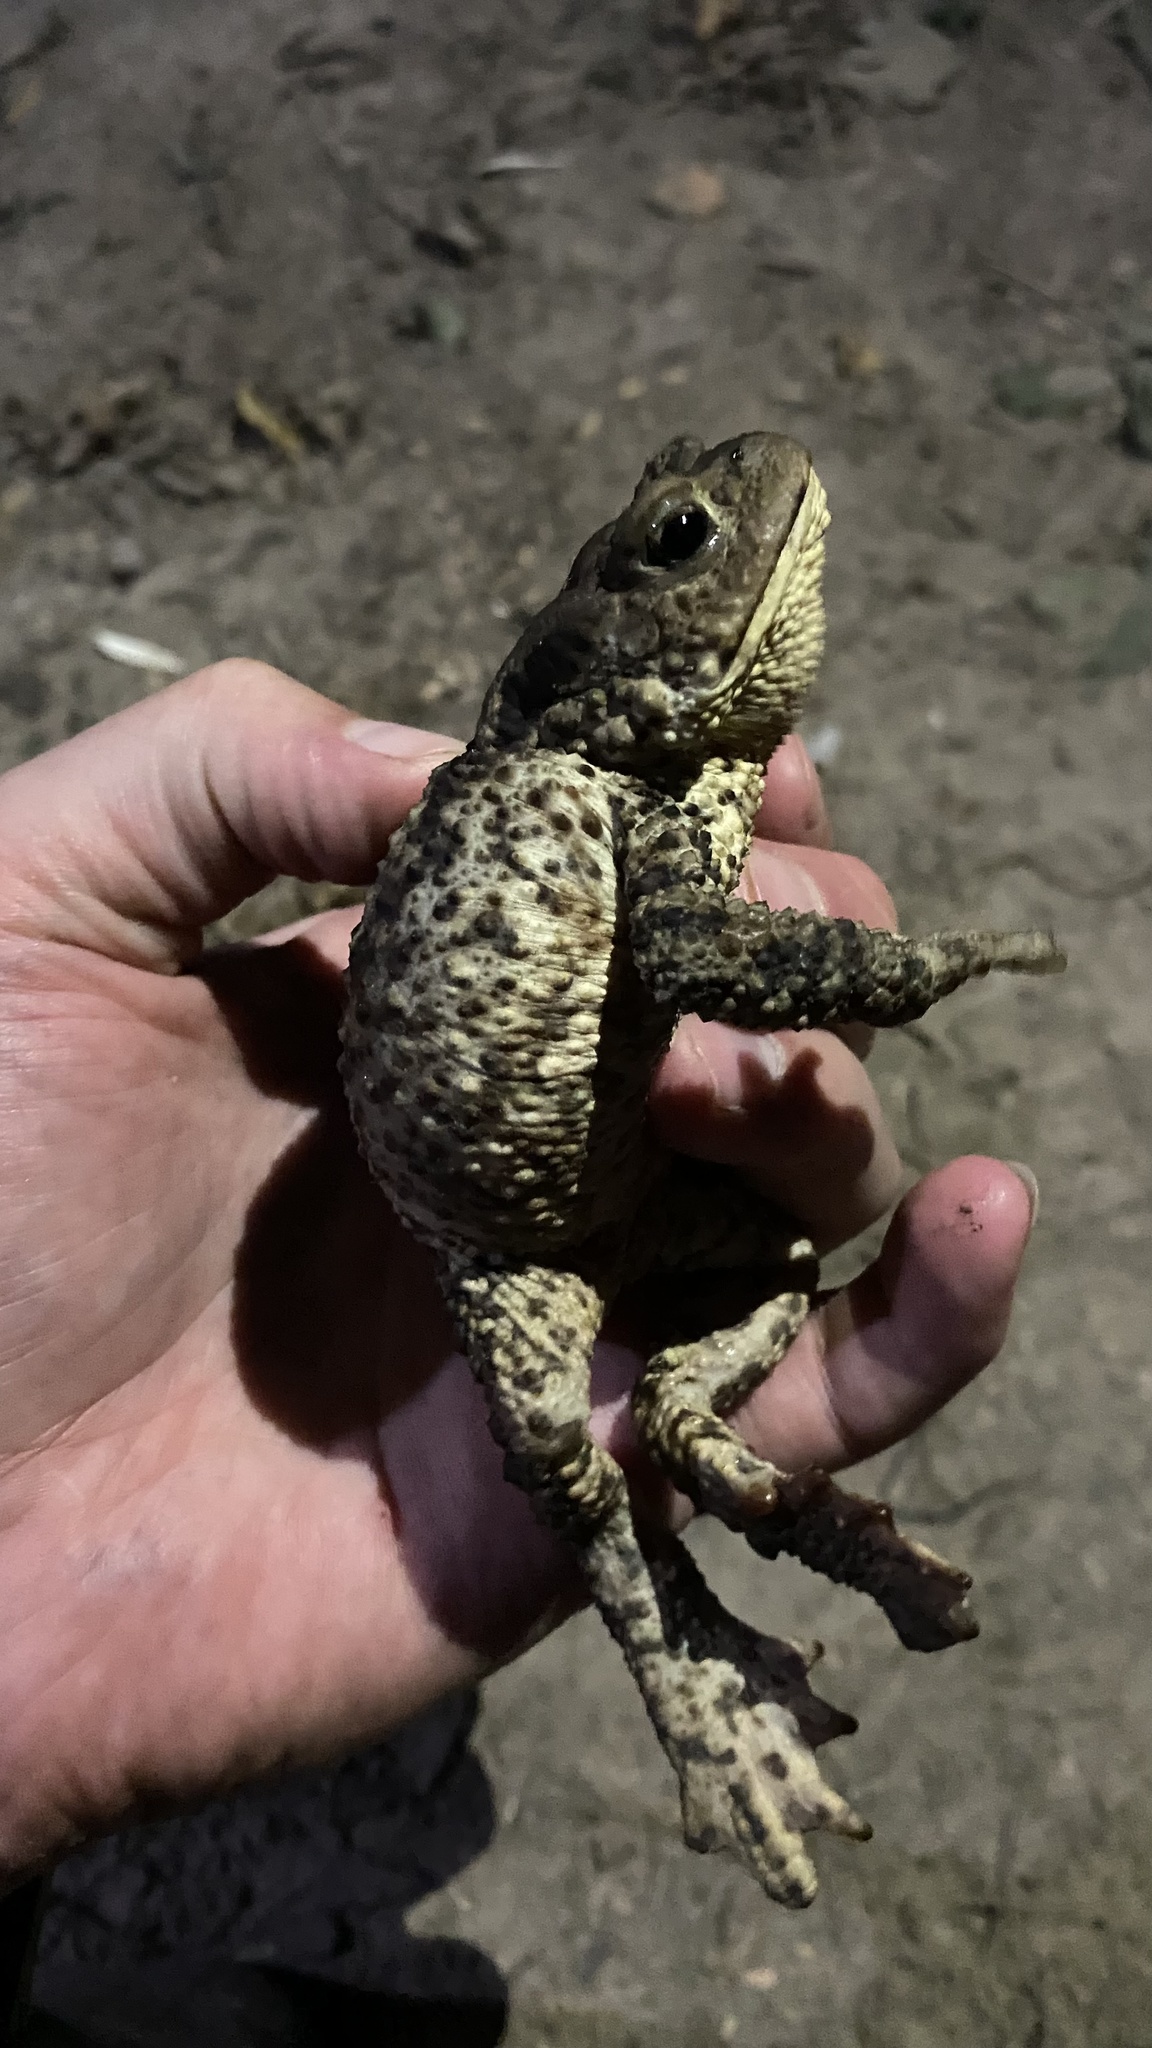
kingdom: Animalia
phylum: Chordata
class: Amphibia
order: Anura
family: Bufonidae
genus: Bufo
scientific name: Bufo bufo
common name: Common toad
